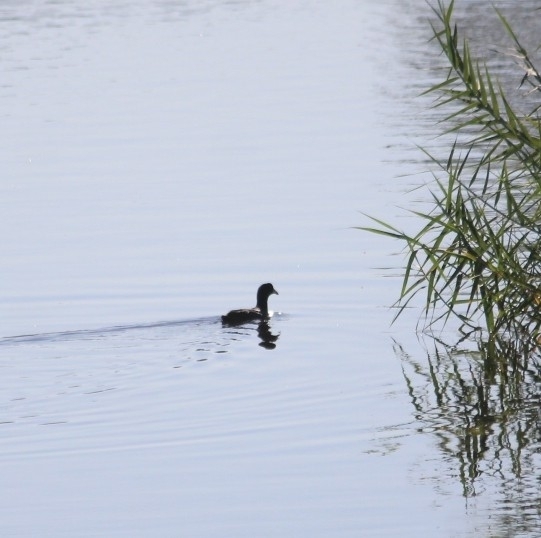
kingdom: Animalia
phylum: Chordata
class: Aves
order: Gruiformes
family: Rallidae
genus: Fulica
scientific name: Fulica americana
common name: American coot
